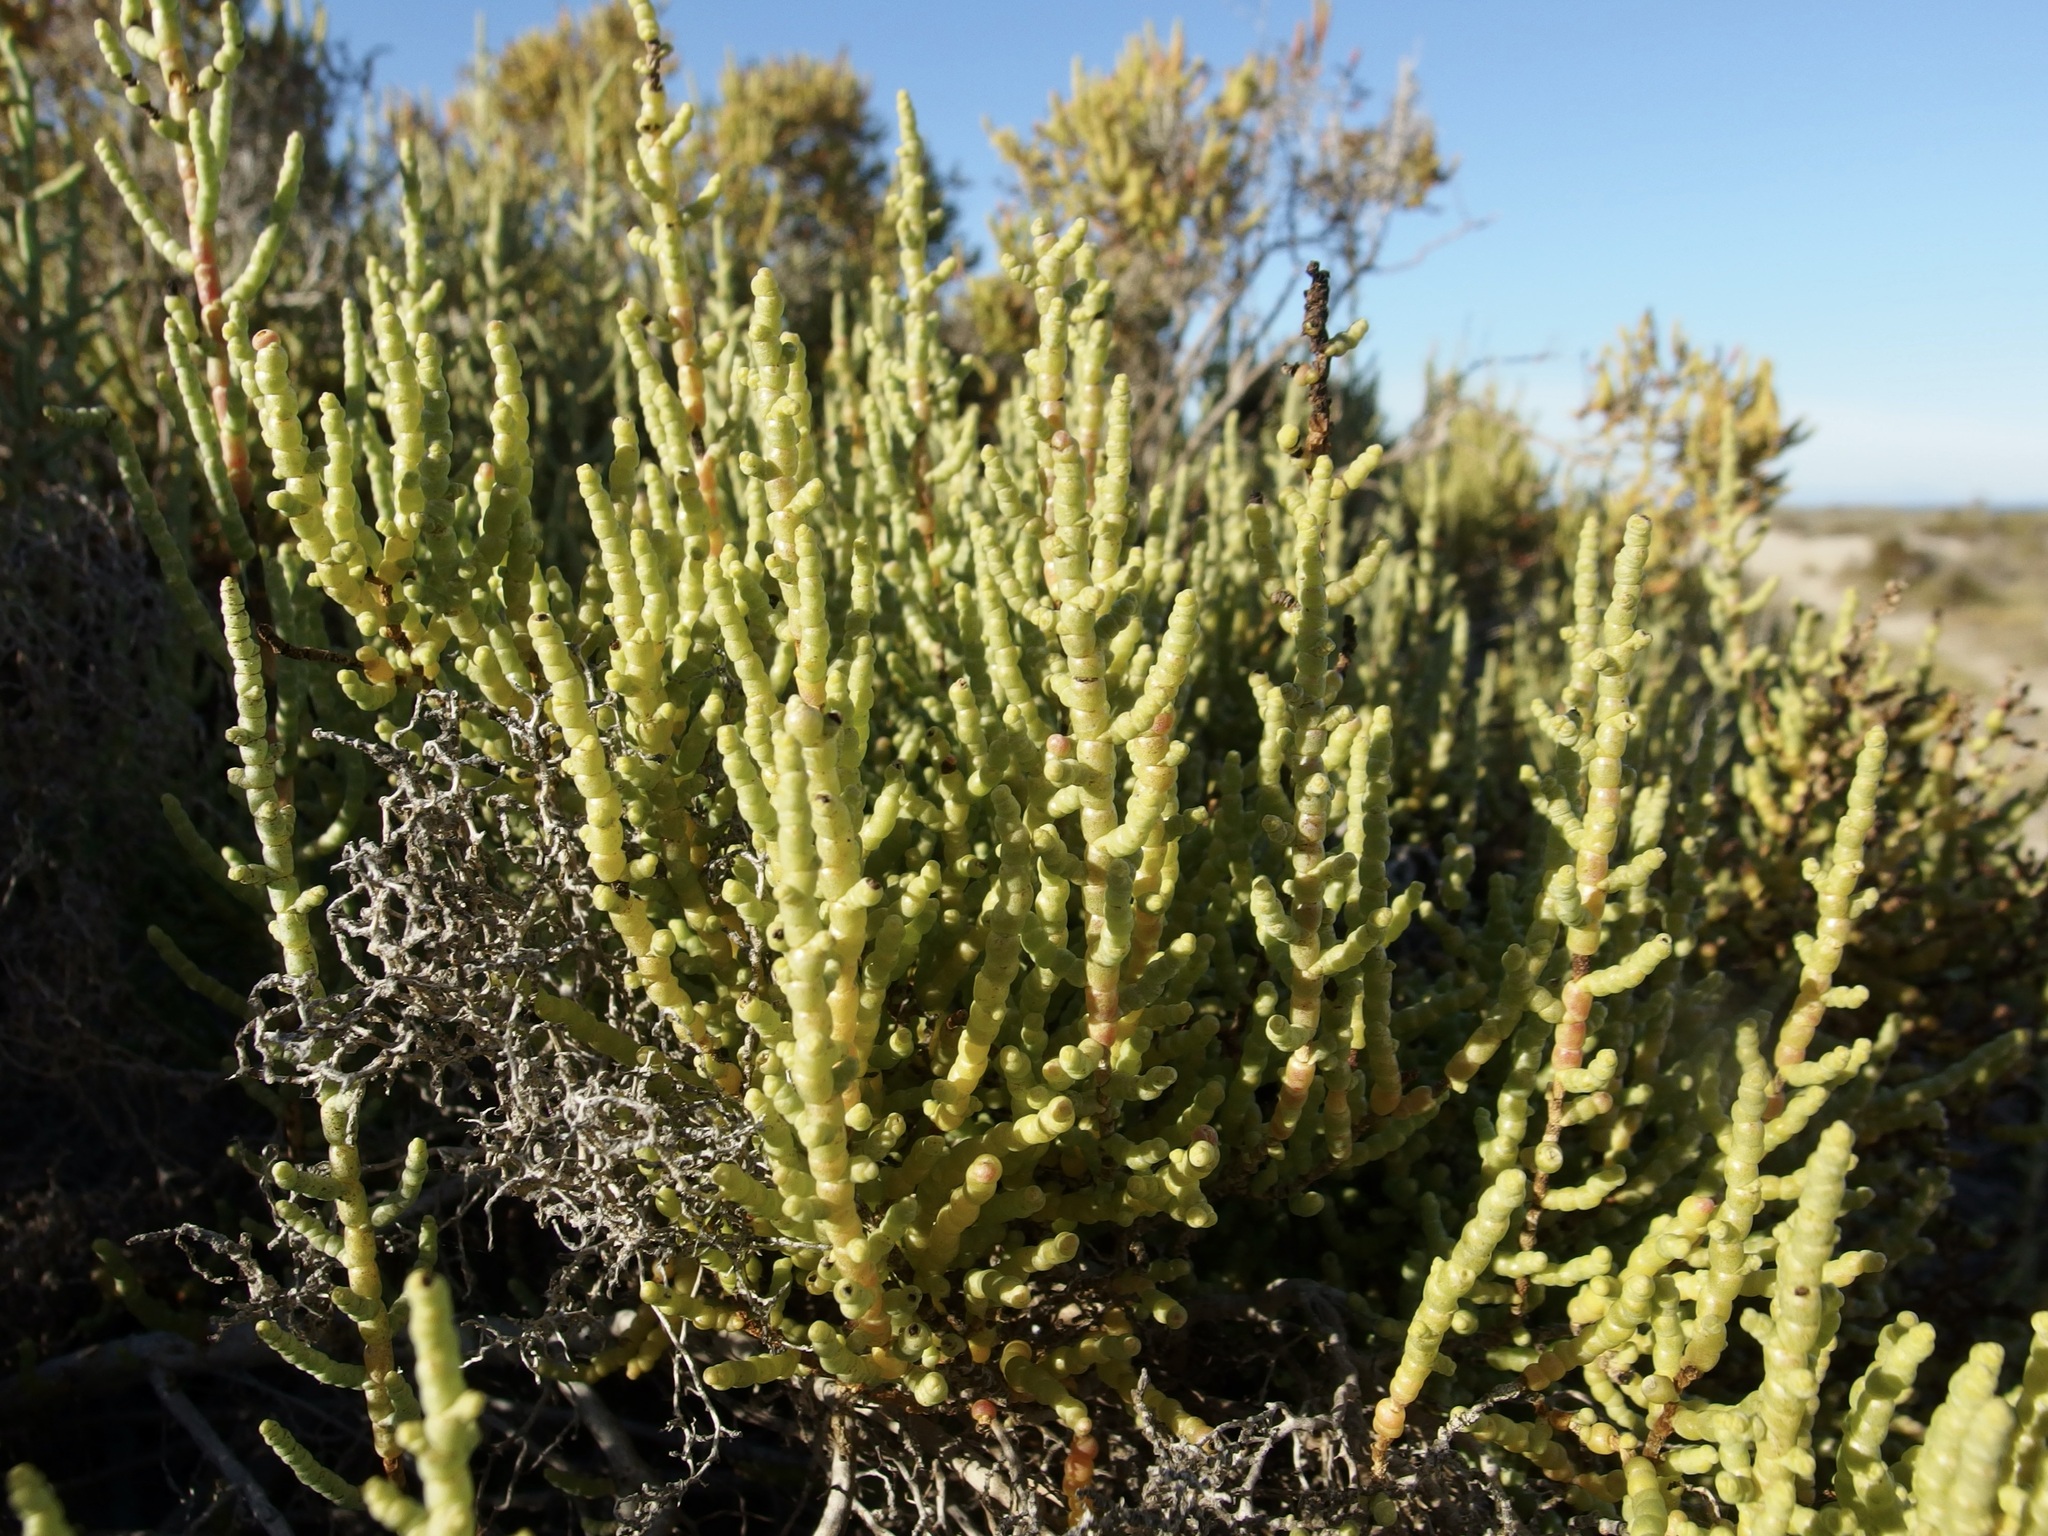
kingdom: Plantae
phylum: Tracheophyta
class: Magnoliopsida
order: Caryophyllales
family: Amaranthaceae
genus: Allenrolfea
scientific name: Allenrolfea occidentalis
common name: Iodine-bush
